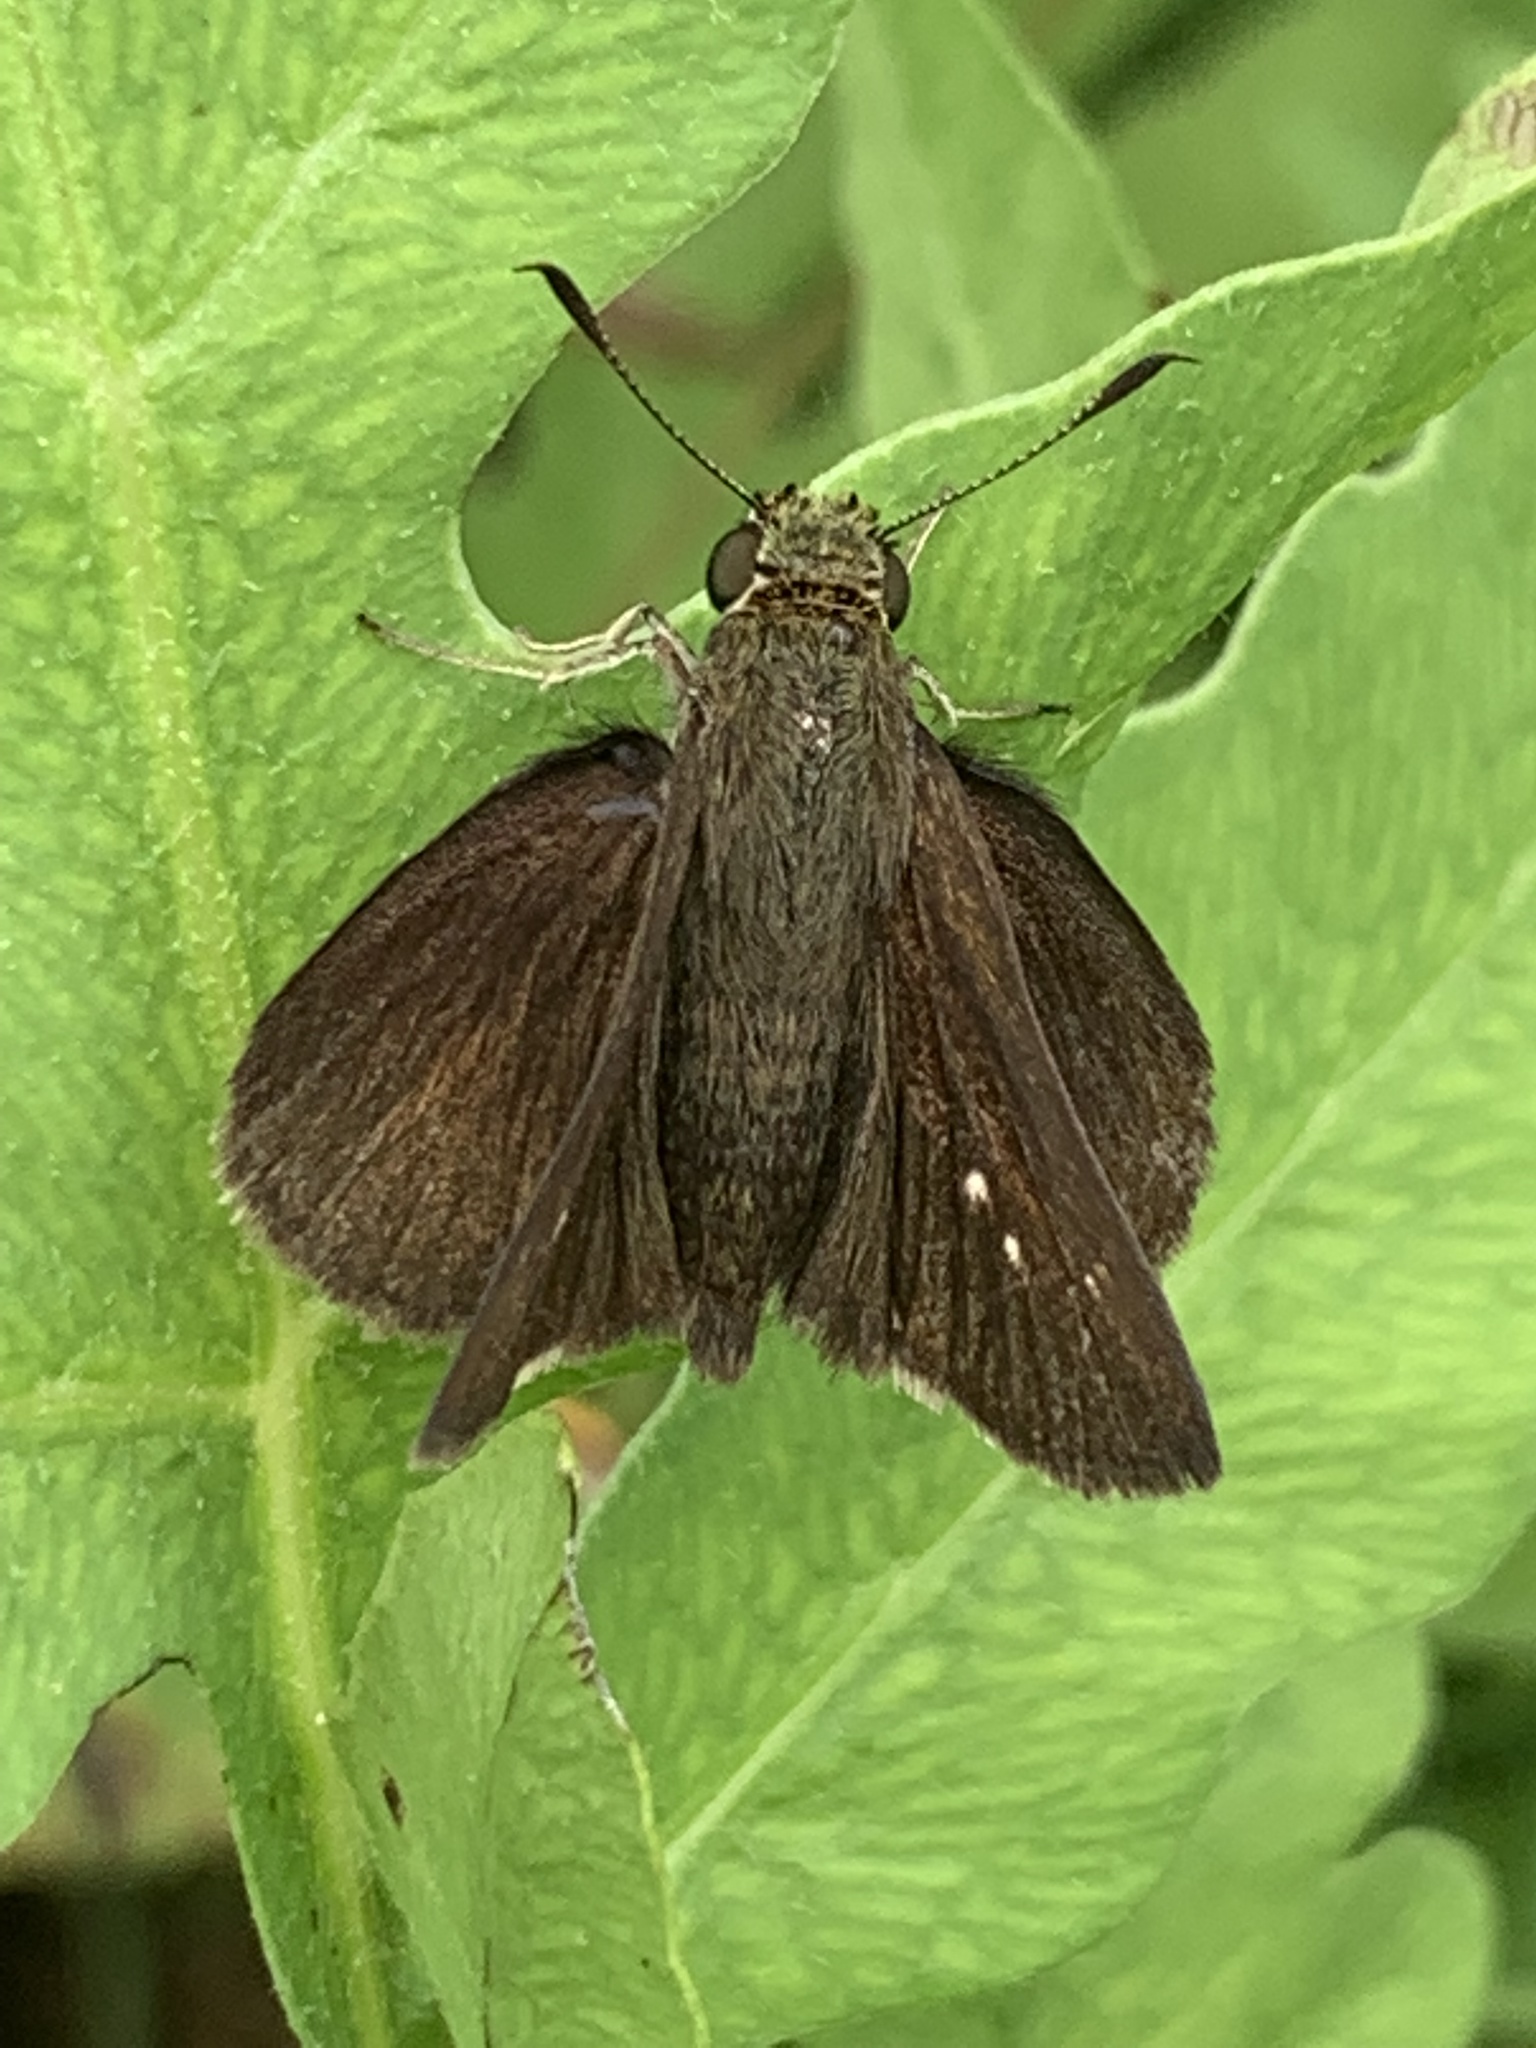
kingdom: Animalia
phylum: Arthropoda
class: Insecta
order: Lepidoptera
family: Hesperiidae
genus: Euphyes
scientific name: Euphyes vestris
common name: Dun skipper
